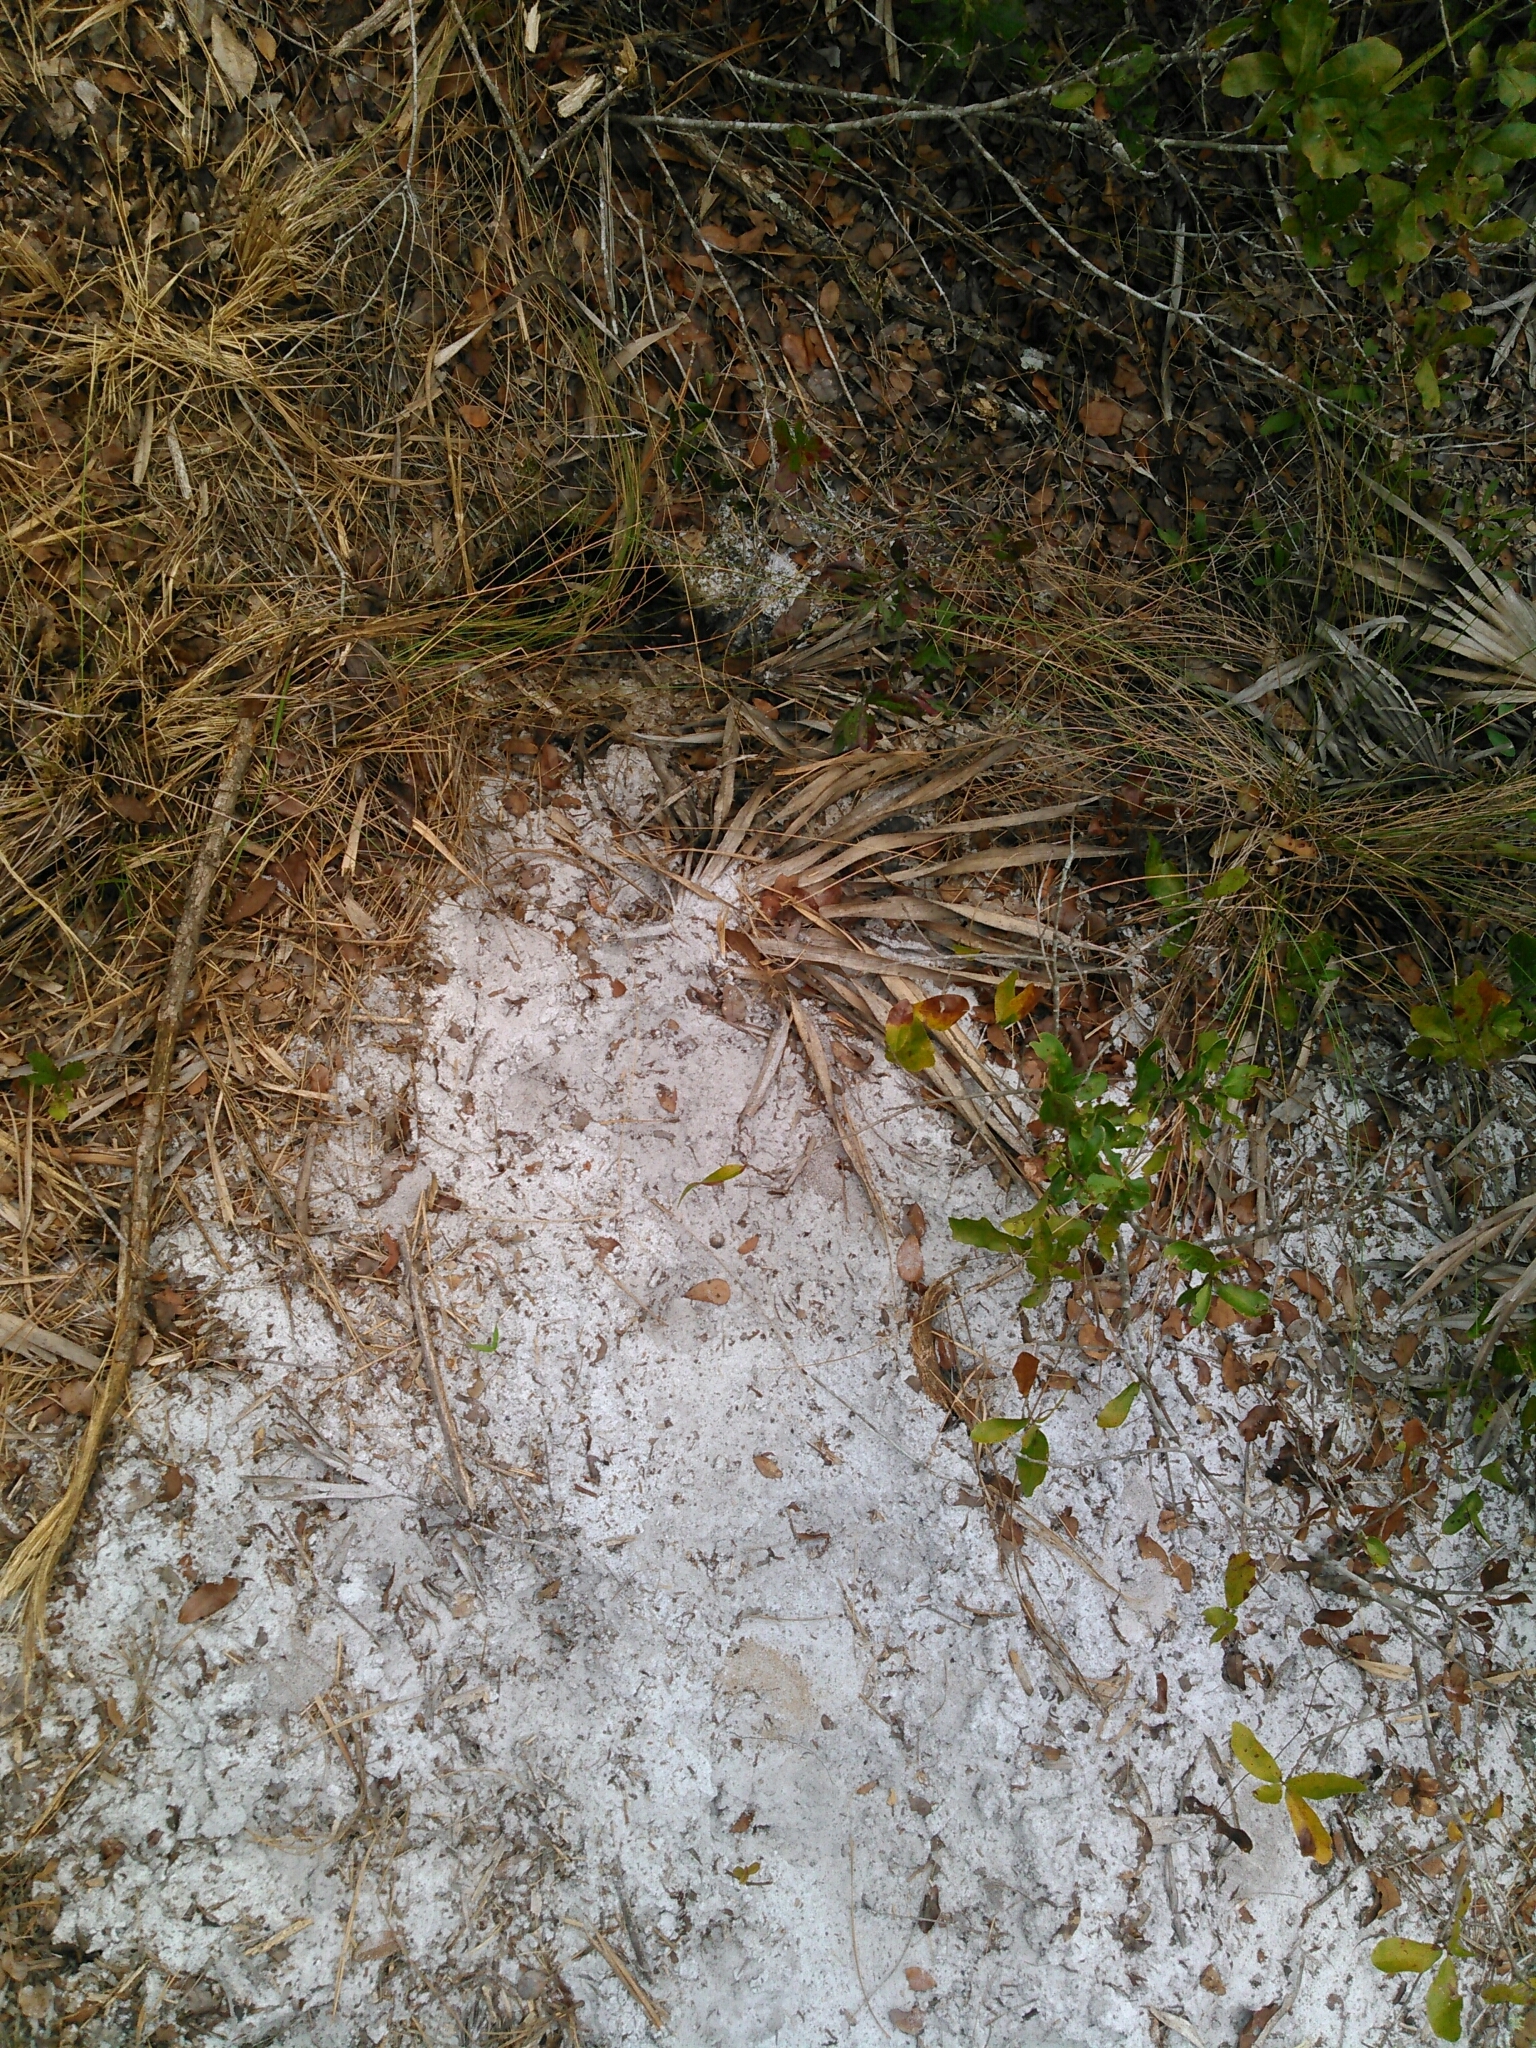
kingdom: Animalia
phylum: Chordata
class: Testudines
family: Testudinidae
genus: Gopherus
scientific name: Gopherus polyphemus
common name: Florida gopher tortoise
